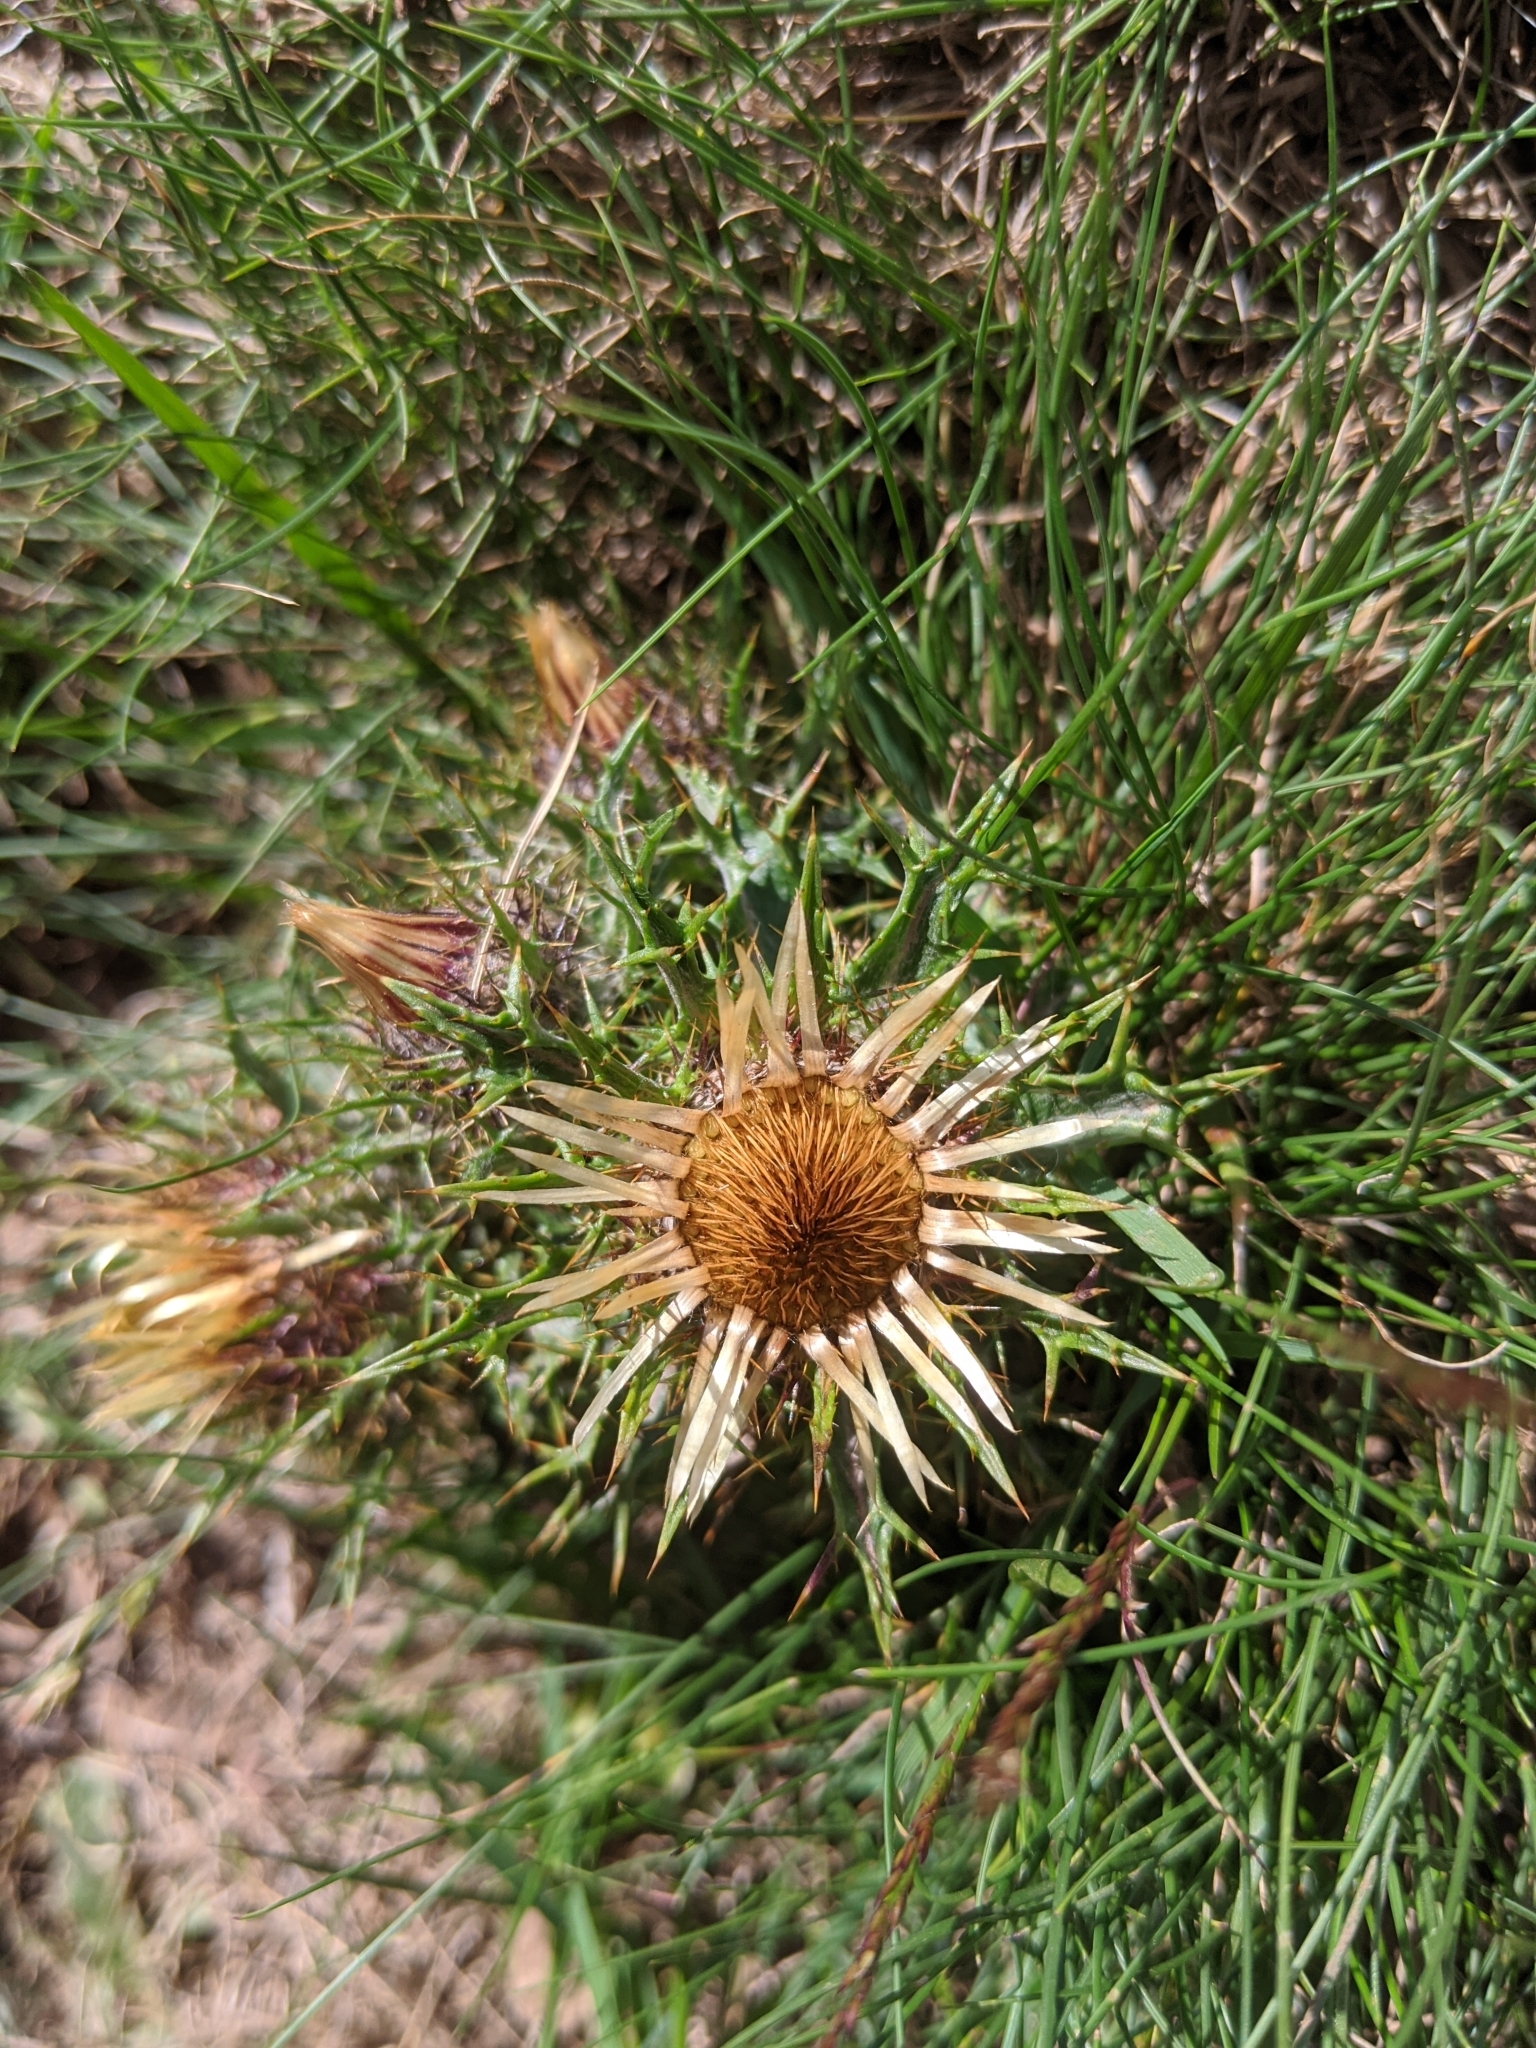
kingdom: Plantae
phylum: Tracheophyta
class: Magnoliopsida
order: Asterales
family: Asteraceae
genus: Carlina
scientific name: Carlina vulgaris
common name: Carline thistle
